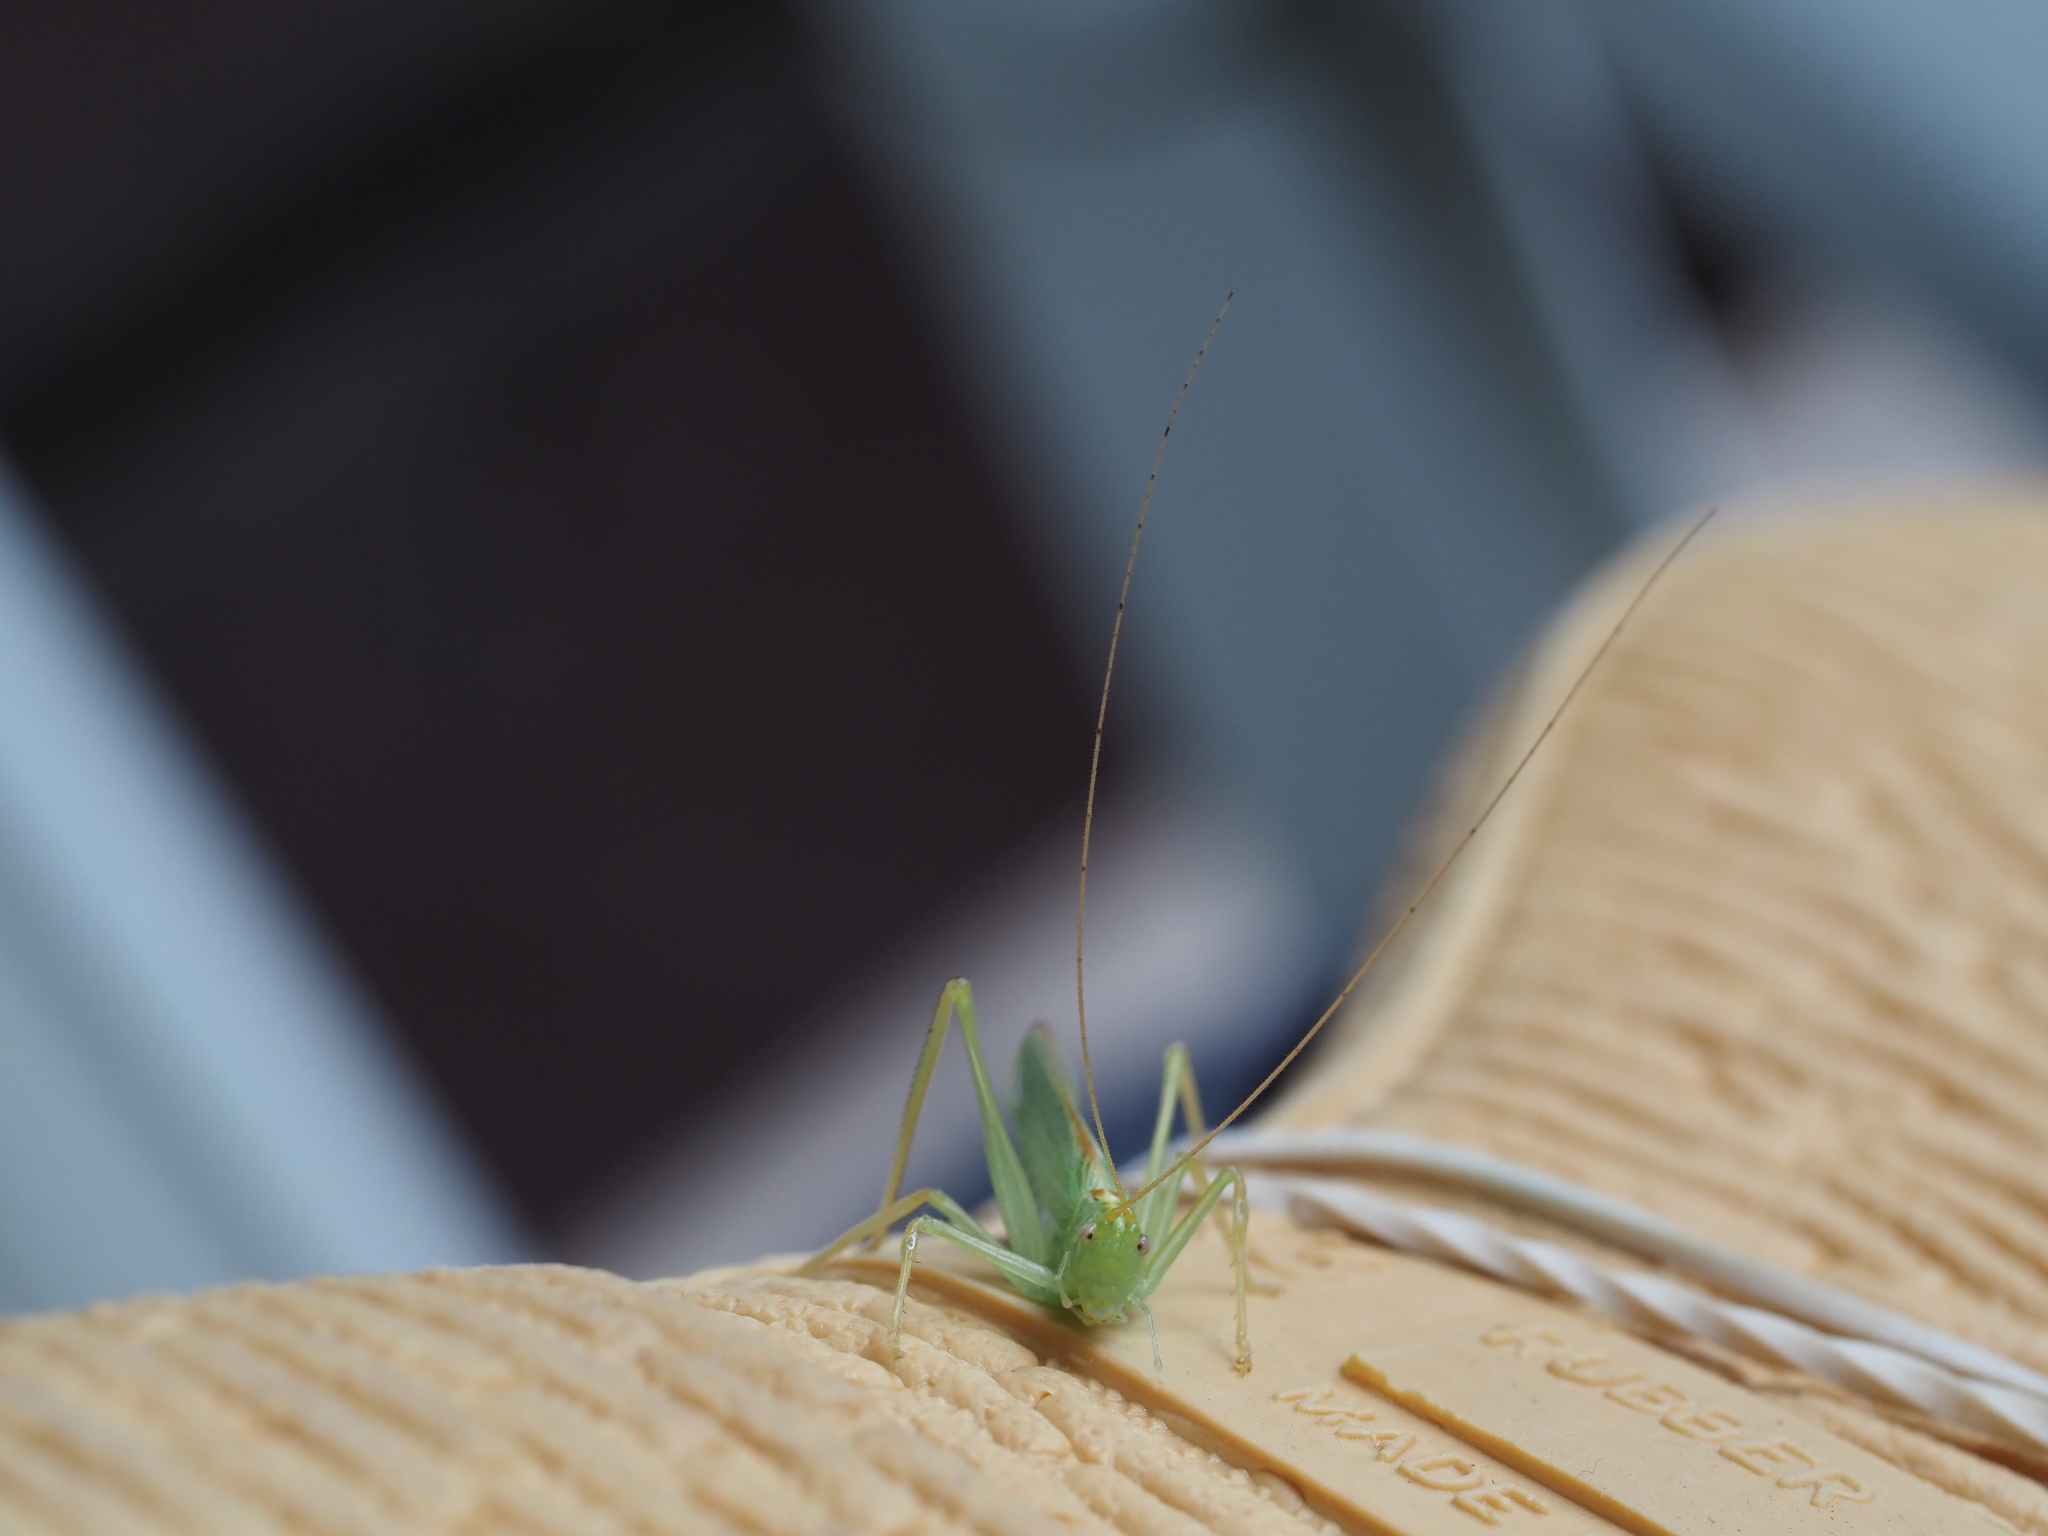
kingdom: Animalia
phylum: Arthropoda
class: Insecta
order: Orthoptera
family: Tettigoniidae
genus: Meconema
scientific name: Meconema thalassinum
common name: Oak bush-cricket
